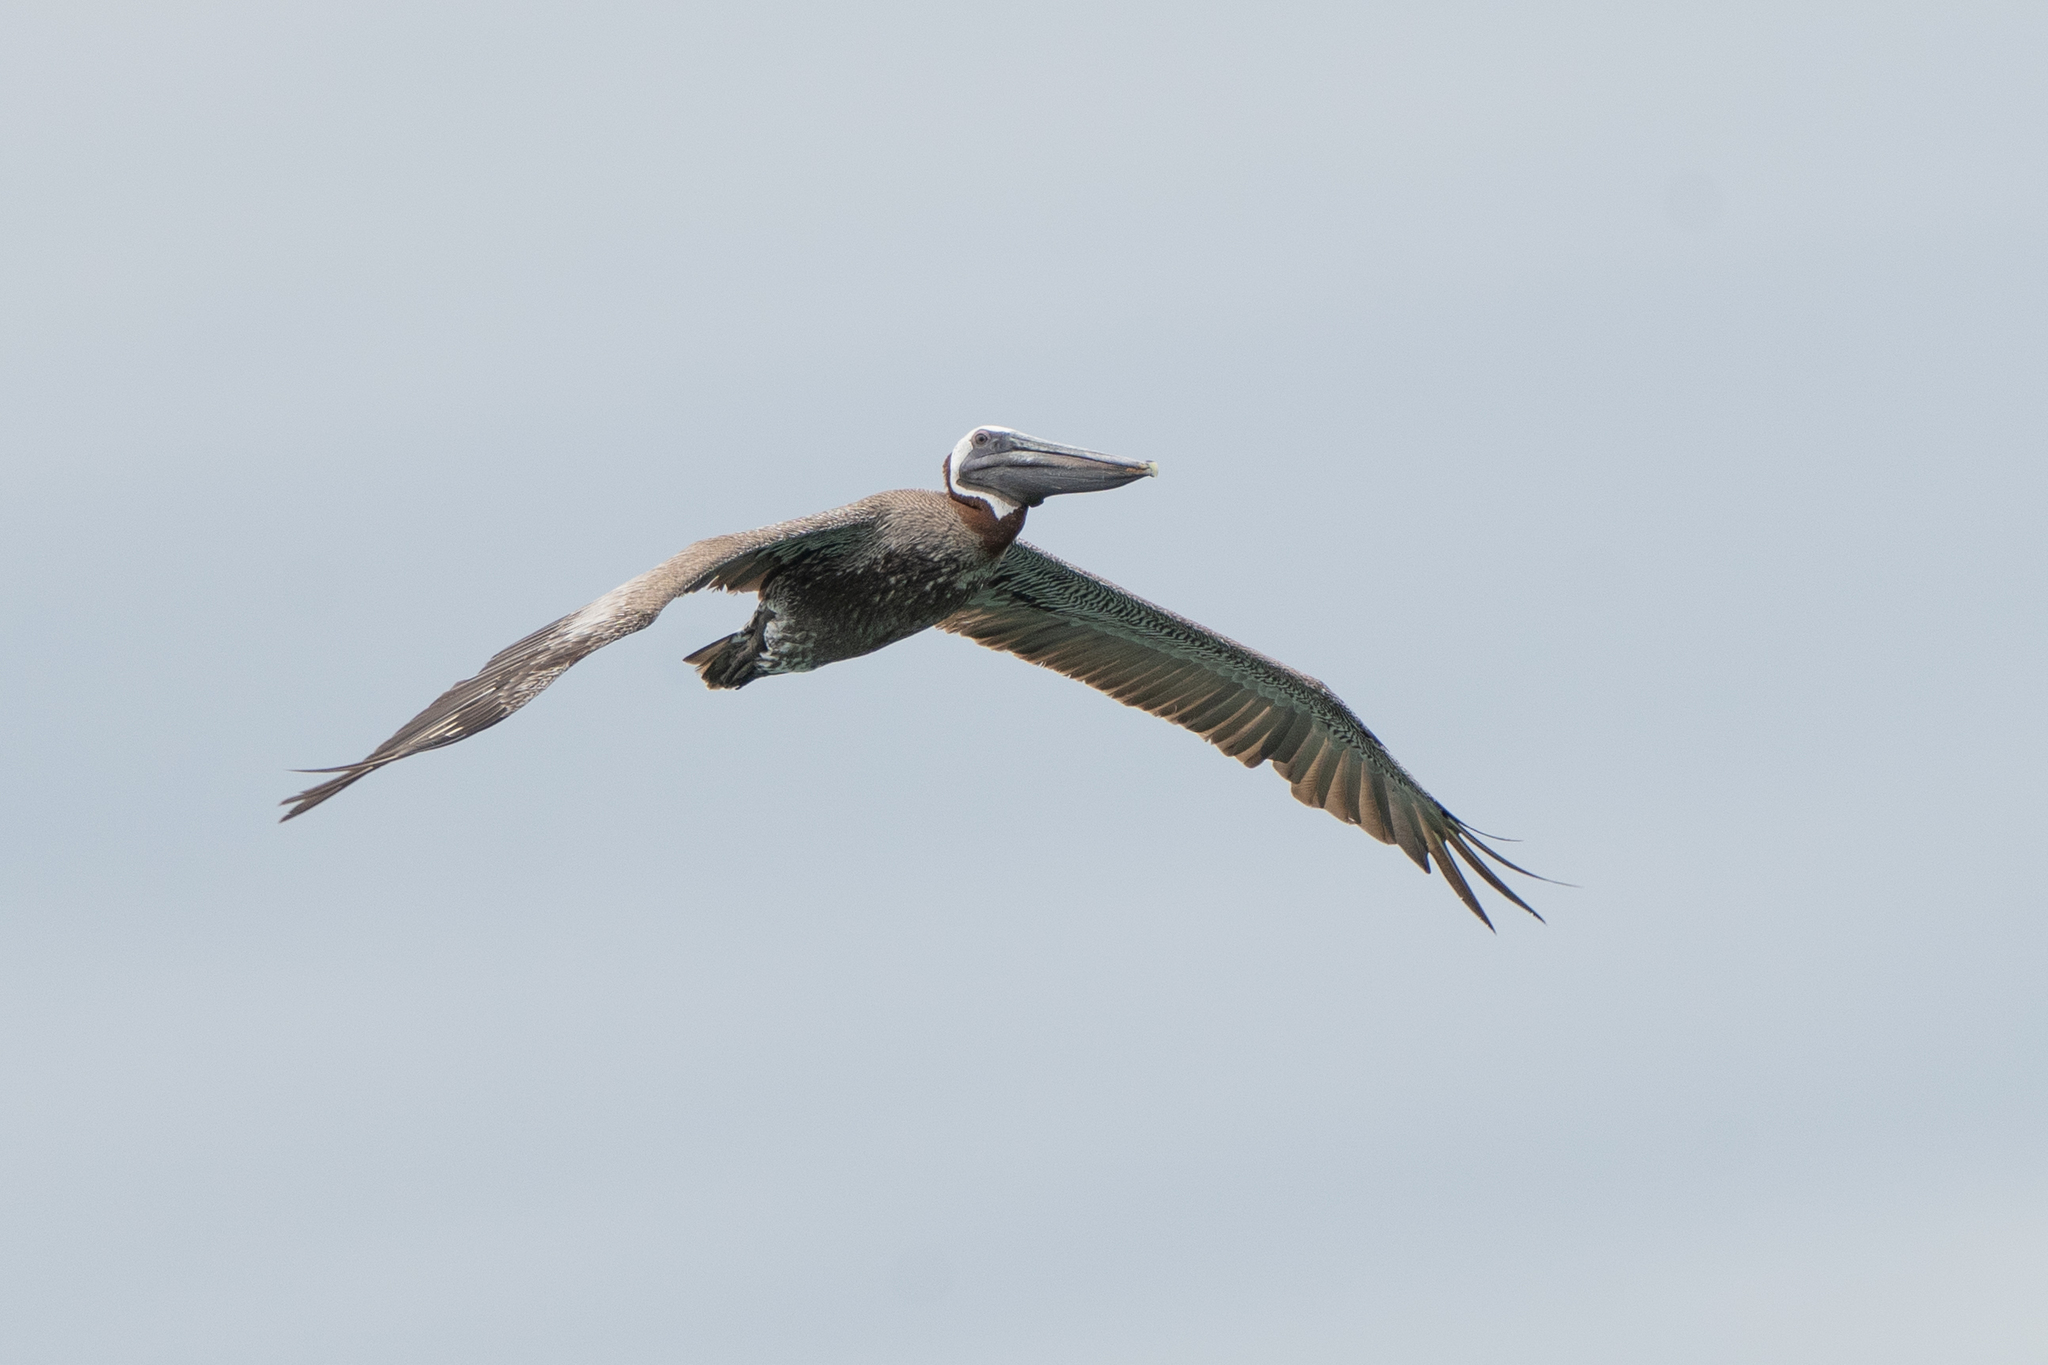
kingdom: Animalia
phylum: Chordata
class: Aves
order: Pelecaniformes
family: Pelecanidae
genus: Pelecanus
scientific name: Pelecanus occidentalis
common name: Brown pelican
